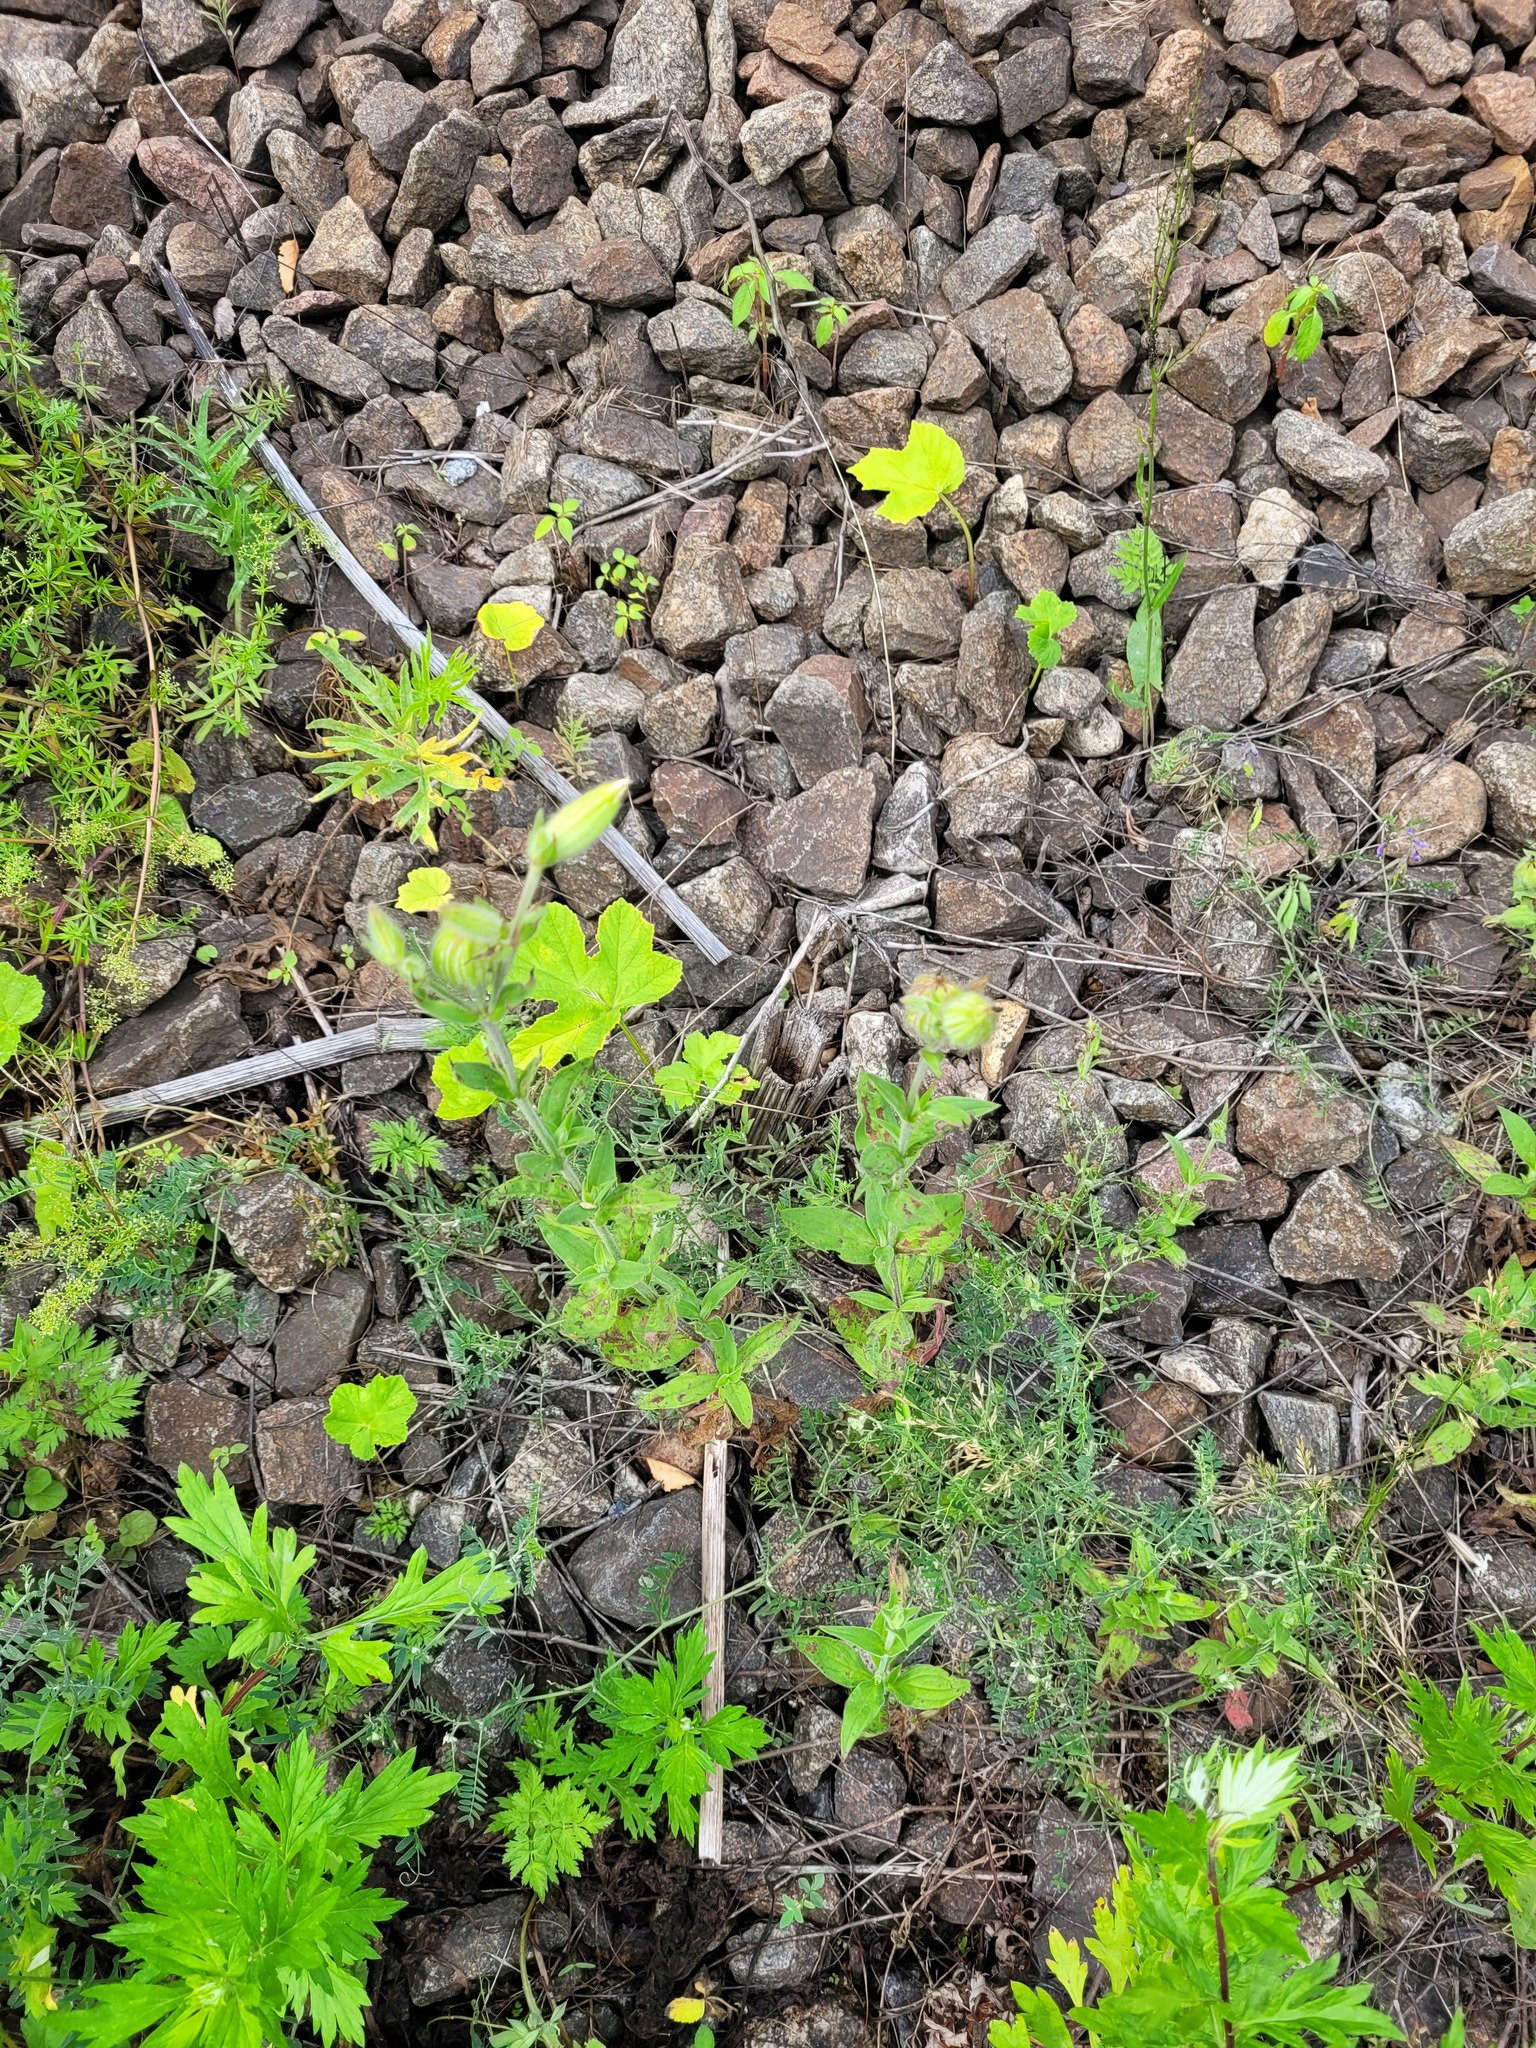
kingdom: Plantae
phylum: Tracheophyta
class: Magnoliopsida
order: Caryophyllales
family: Caryophyllaceae
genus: Silene
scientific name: Silene latifolia
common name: White campion
